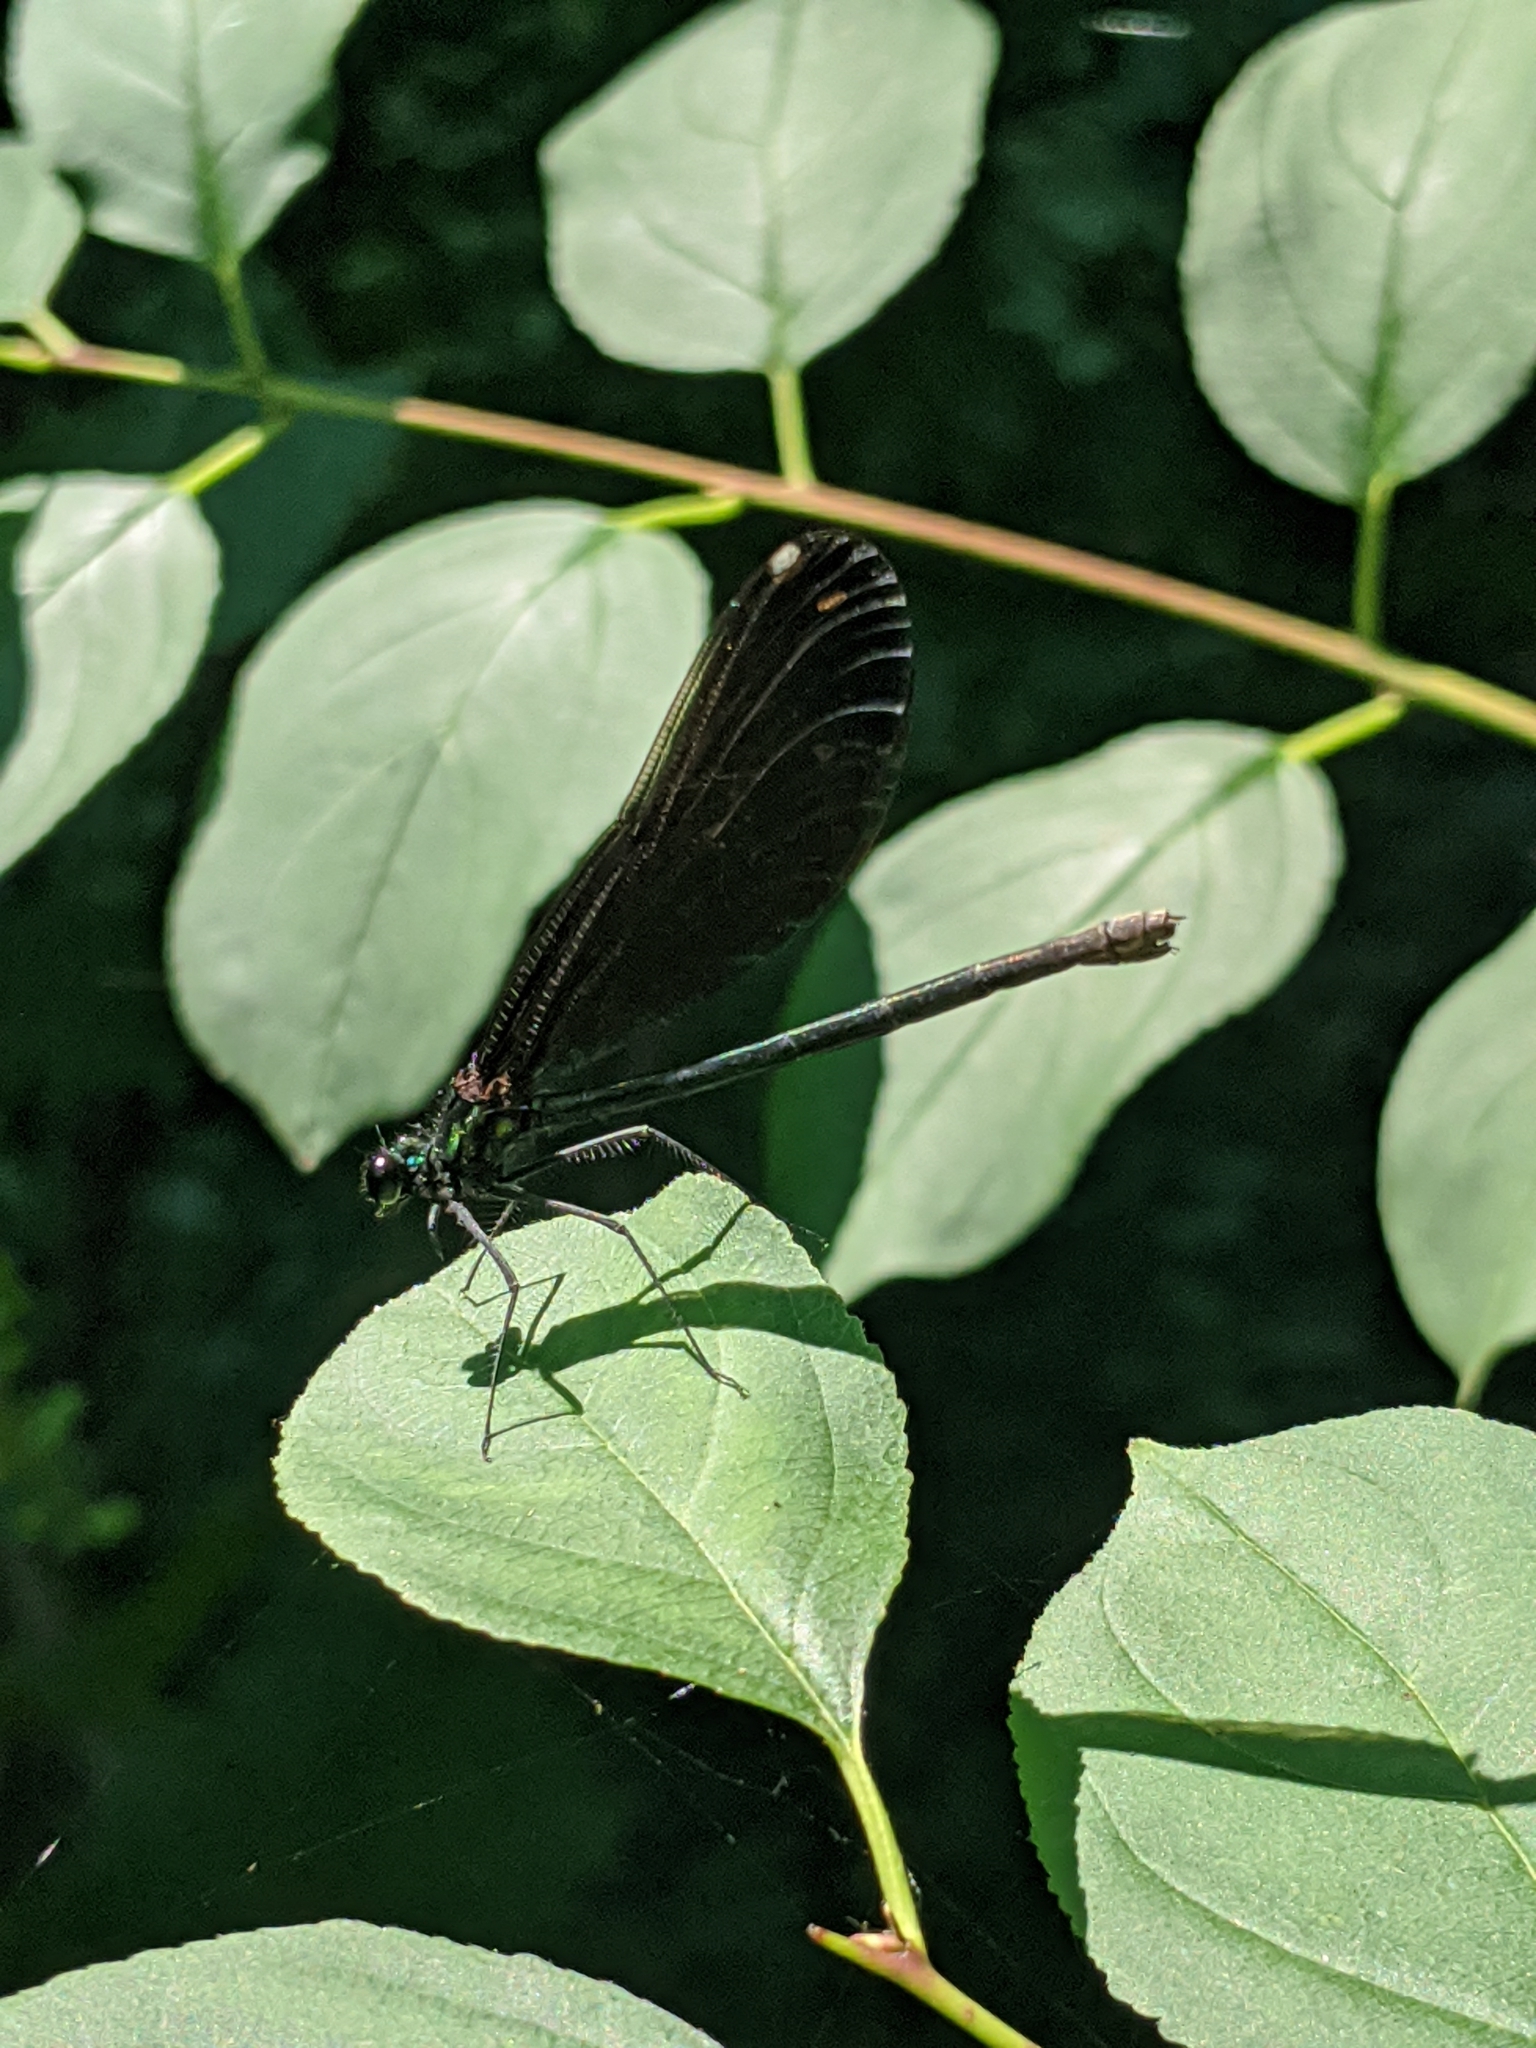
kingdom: Animalia
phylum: Arthropoda
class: Insecta
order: Odonata
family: Calopterygidae
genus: Calopteryx
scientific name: Calopteryx maculata
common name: Ebony jewelwing
